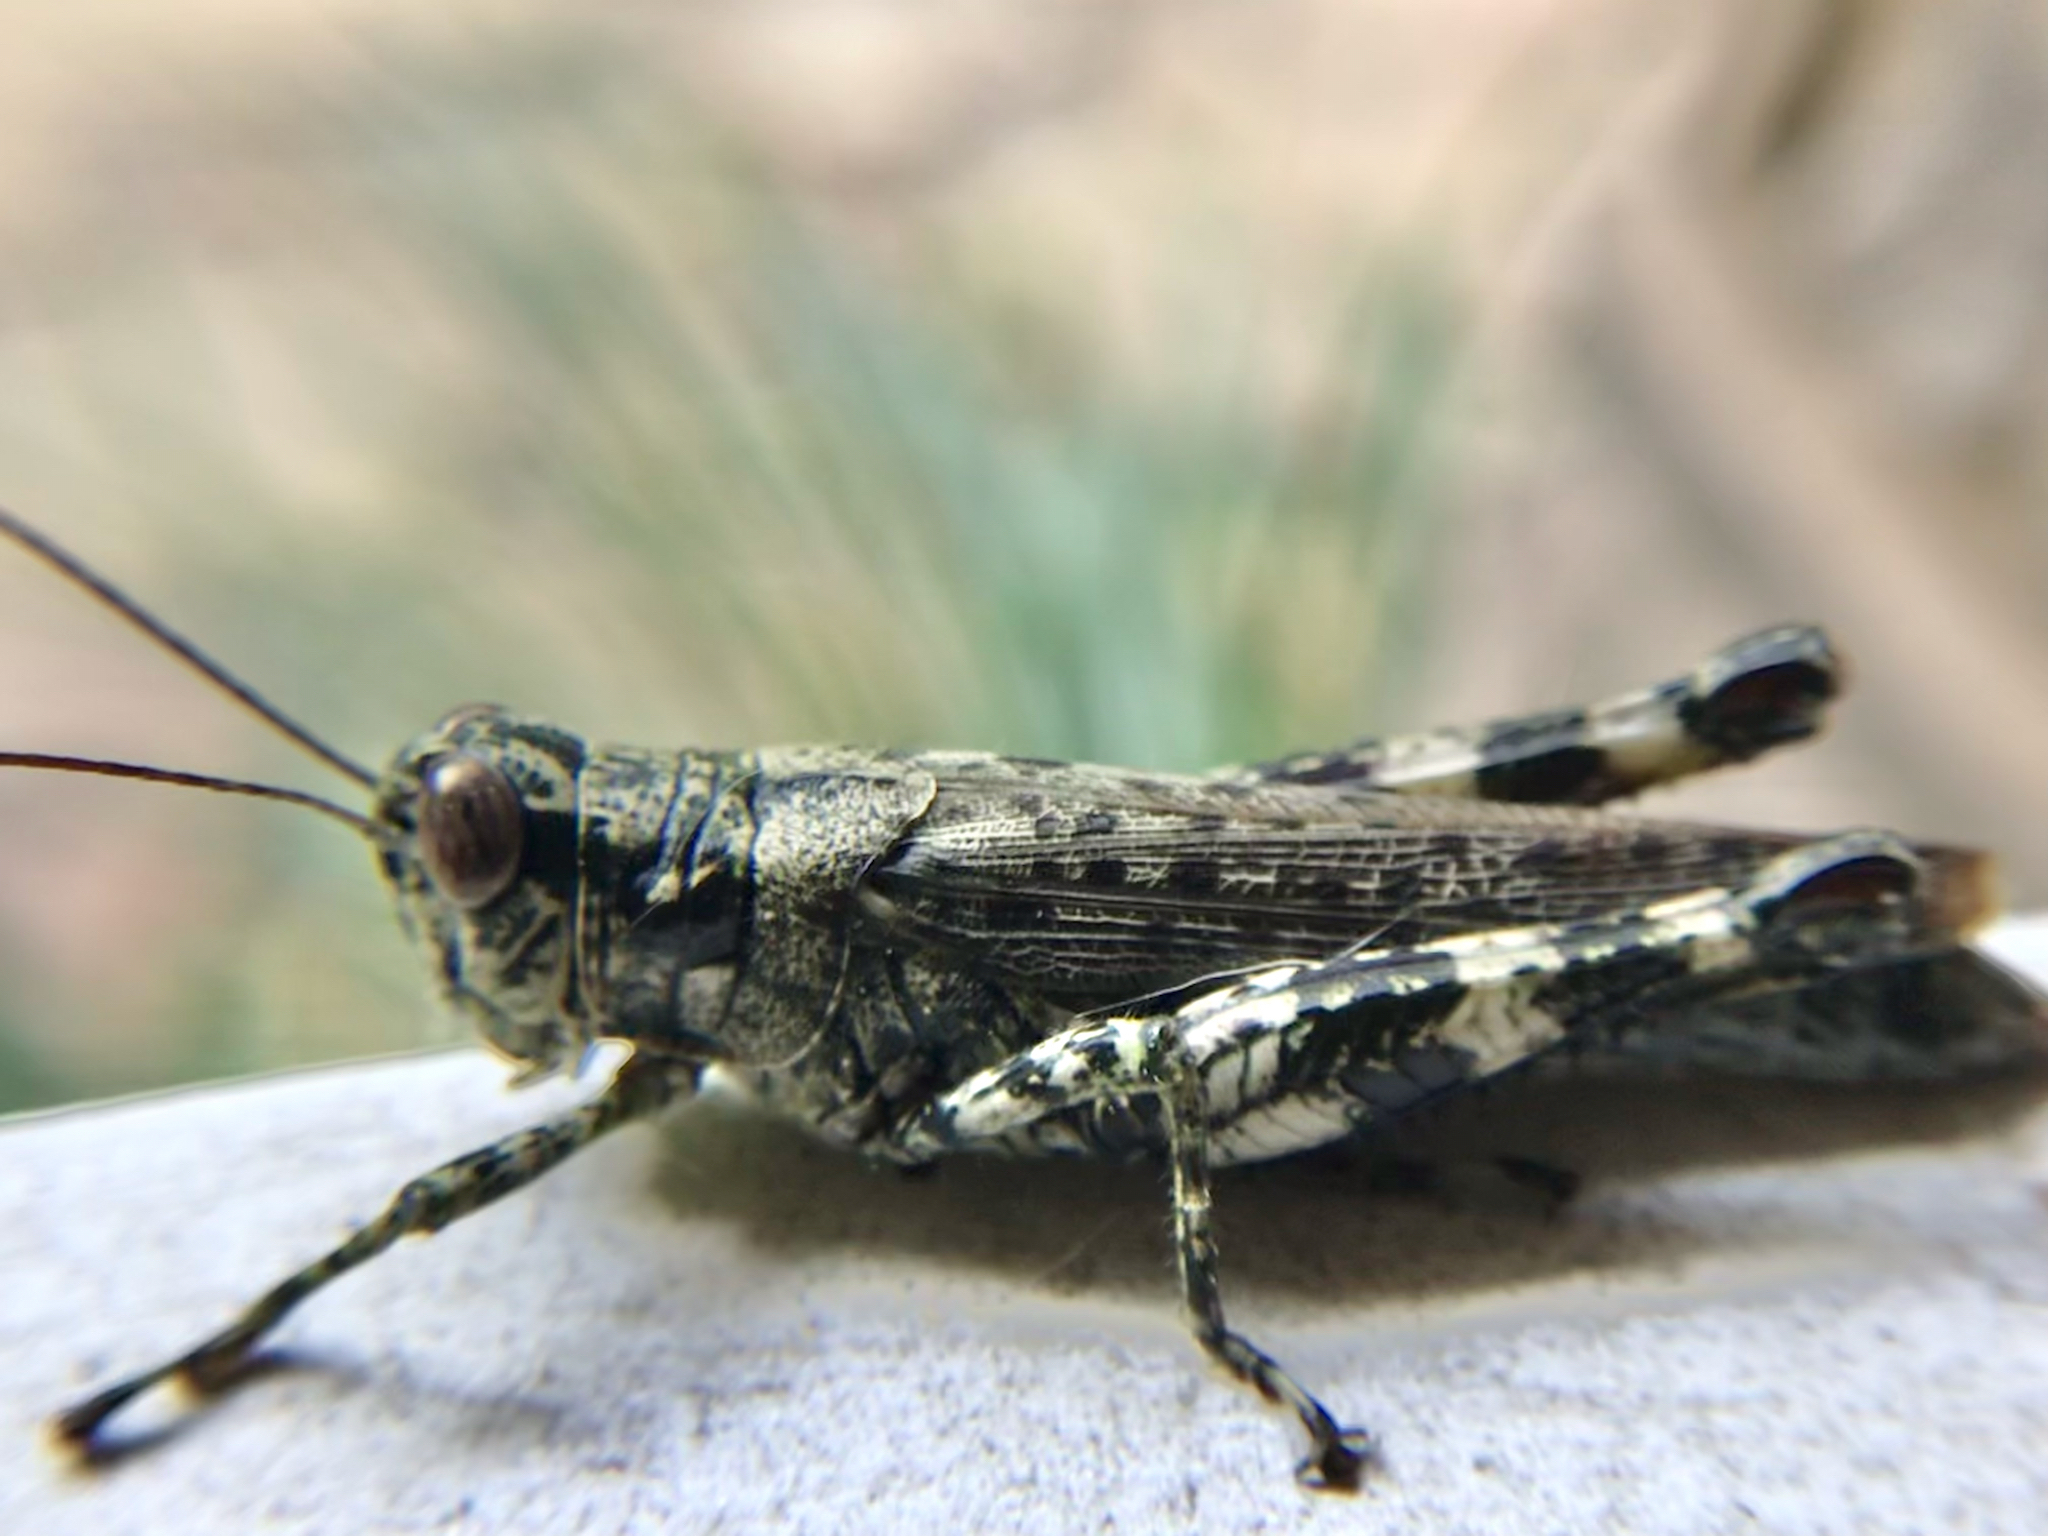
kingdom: Animalia
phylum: Arthropoda
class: Insecta
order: Orthoptera
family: Acrididae
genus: Melanoplus
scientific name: Melanoplus punctulatus
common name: Pine-tree spur-throat grasshopper
